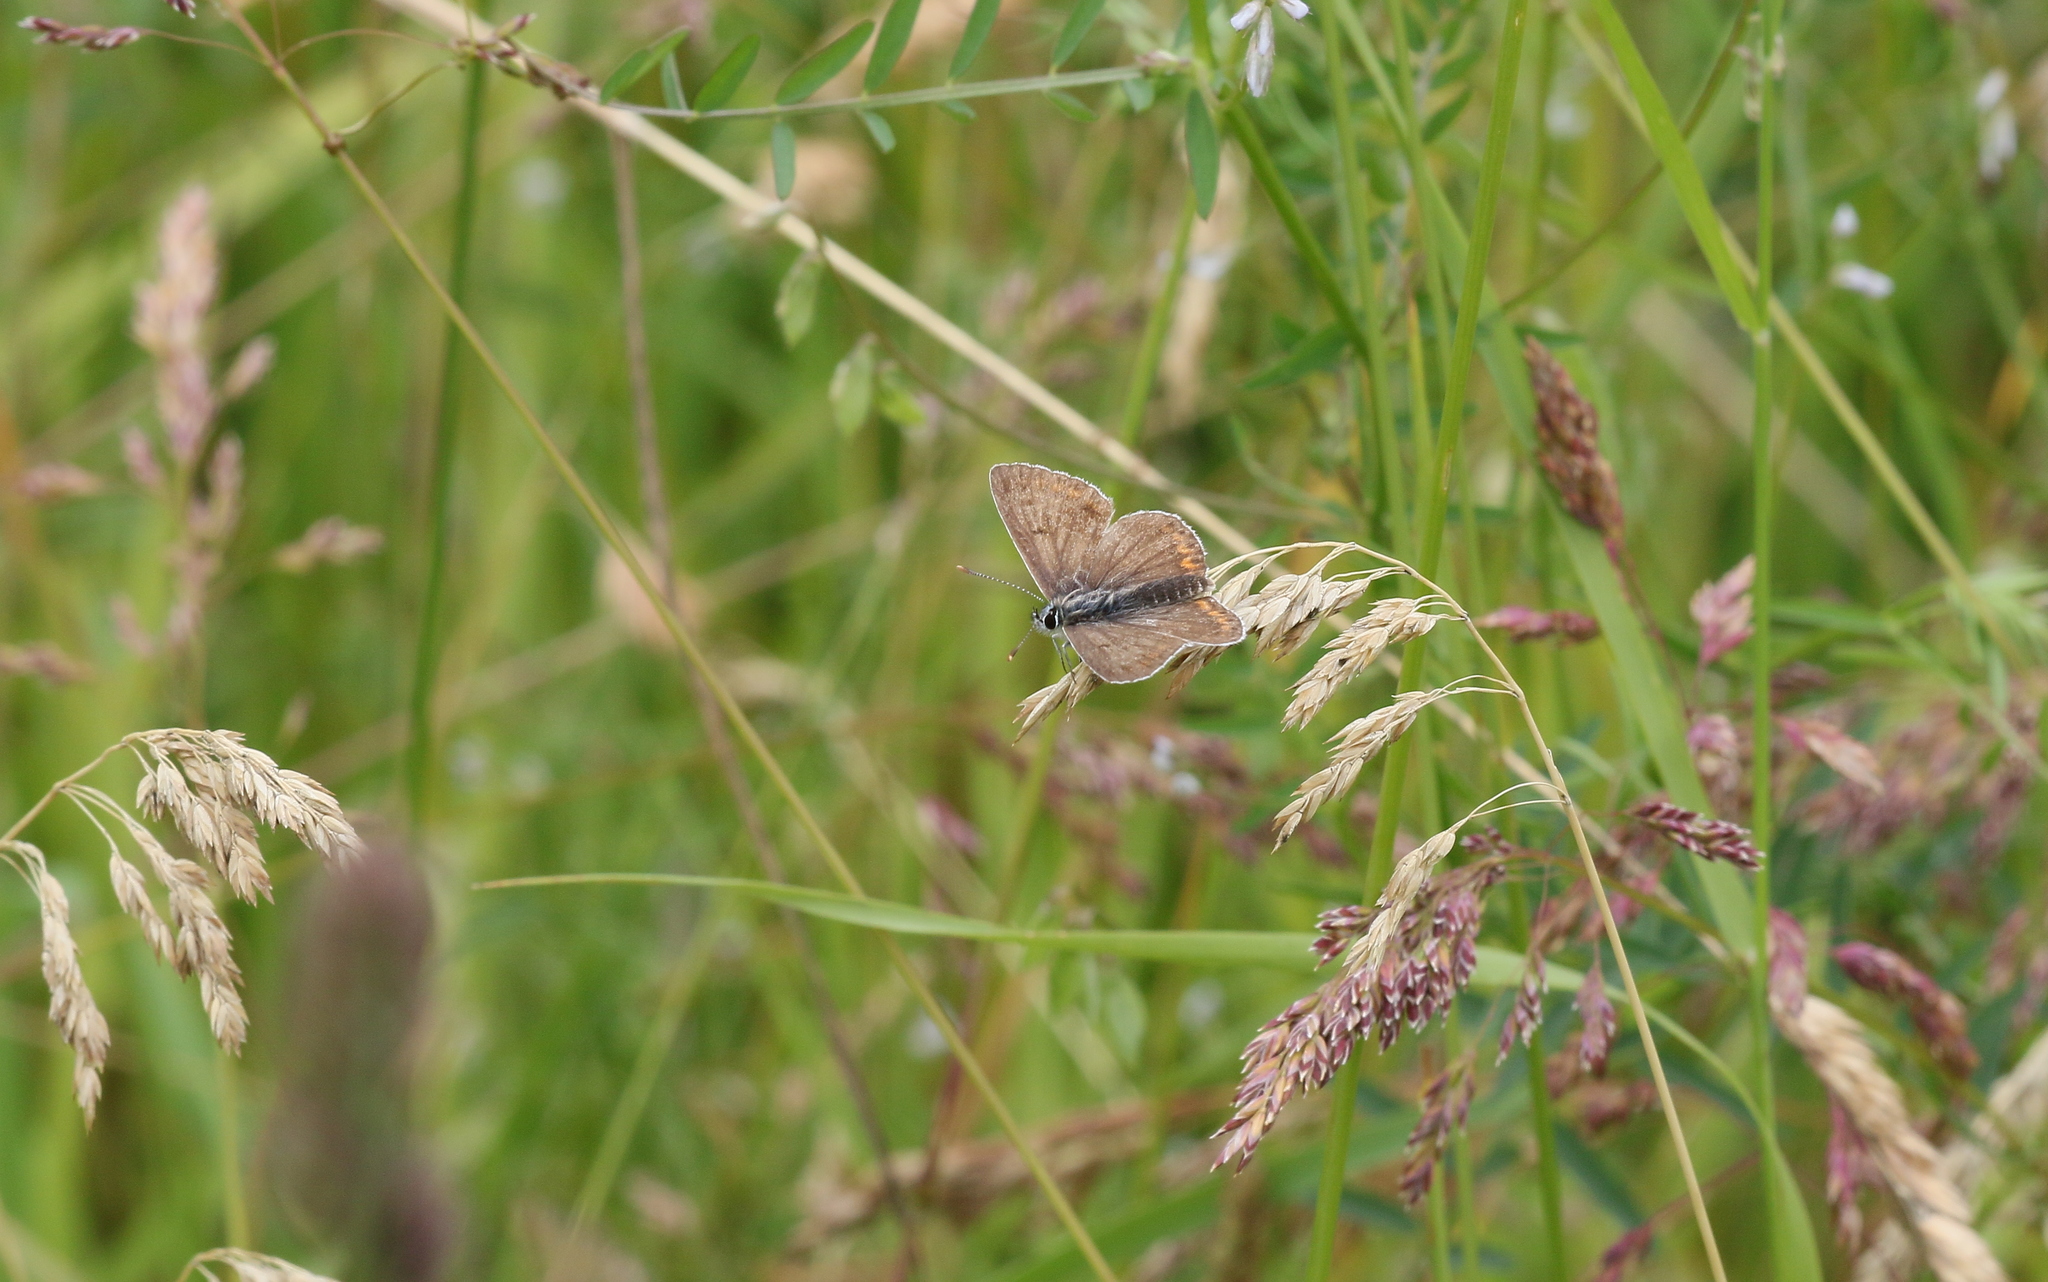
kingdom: Animalia
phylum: Arthropoda
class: Insecta
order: Lepidoptera
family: Lycaenidae
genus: Aricia
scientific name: Aricia agestis
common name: Brown argus
